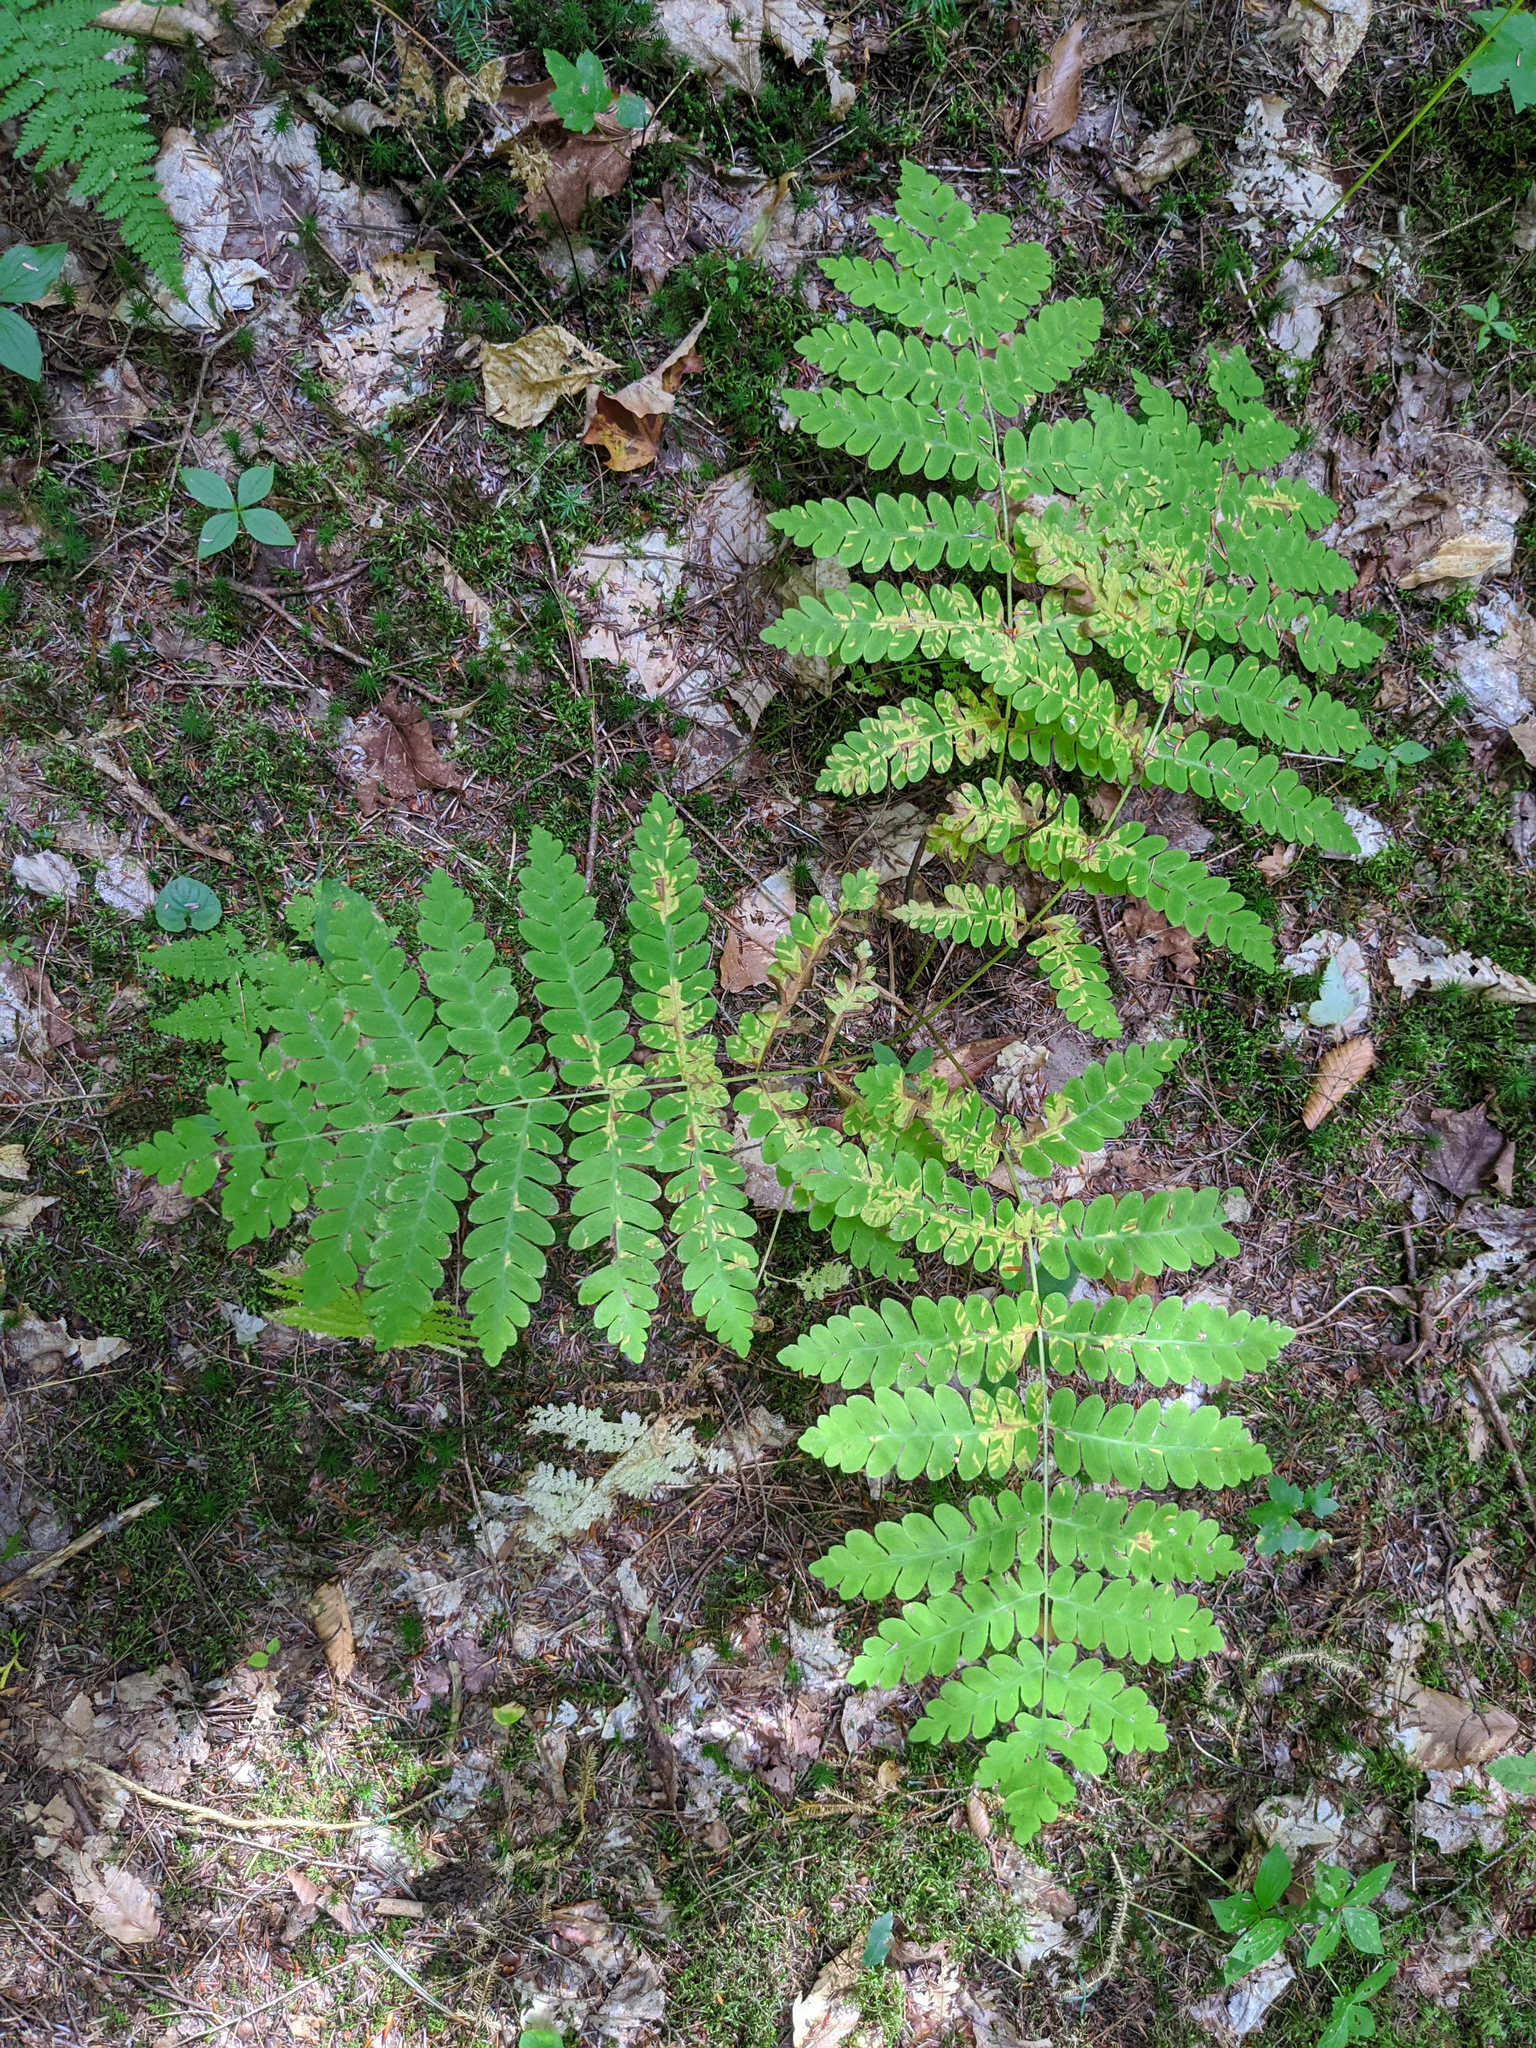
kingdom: Plantae
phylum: Tracheophyta
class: Polypodiopsida
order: Osmundales
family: Osmundaceae
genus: Claytosmunda
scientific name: Claytosmunda claytoniana
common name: Clayton's fern
